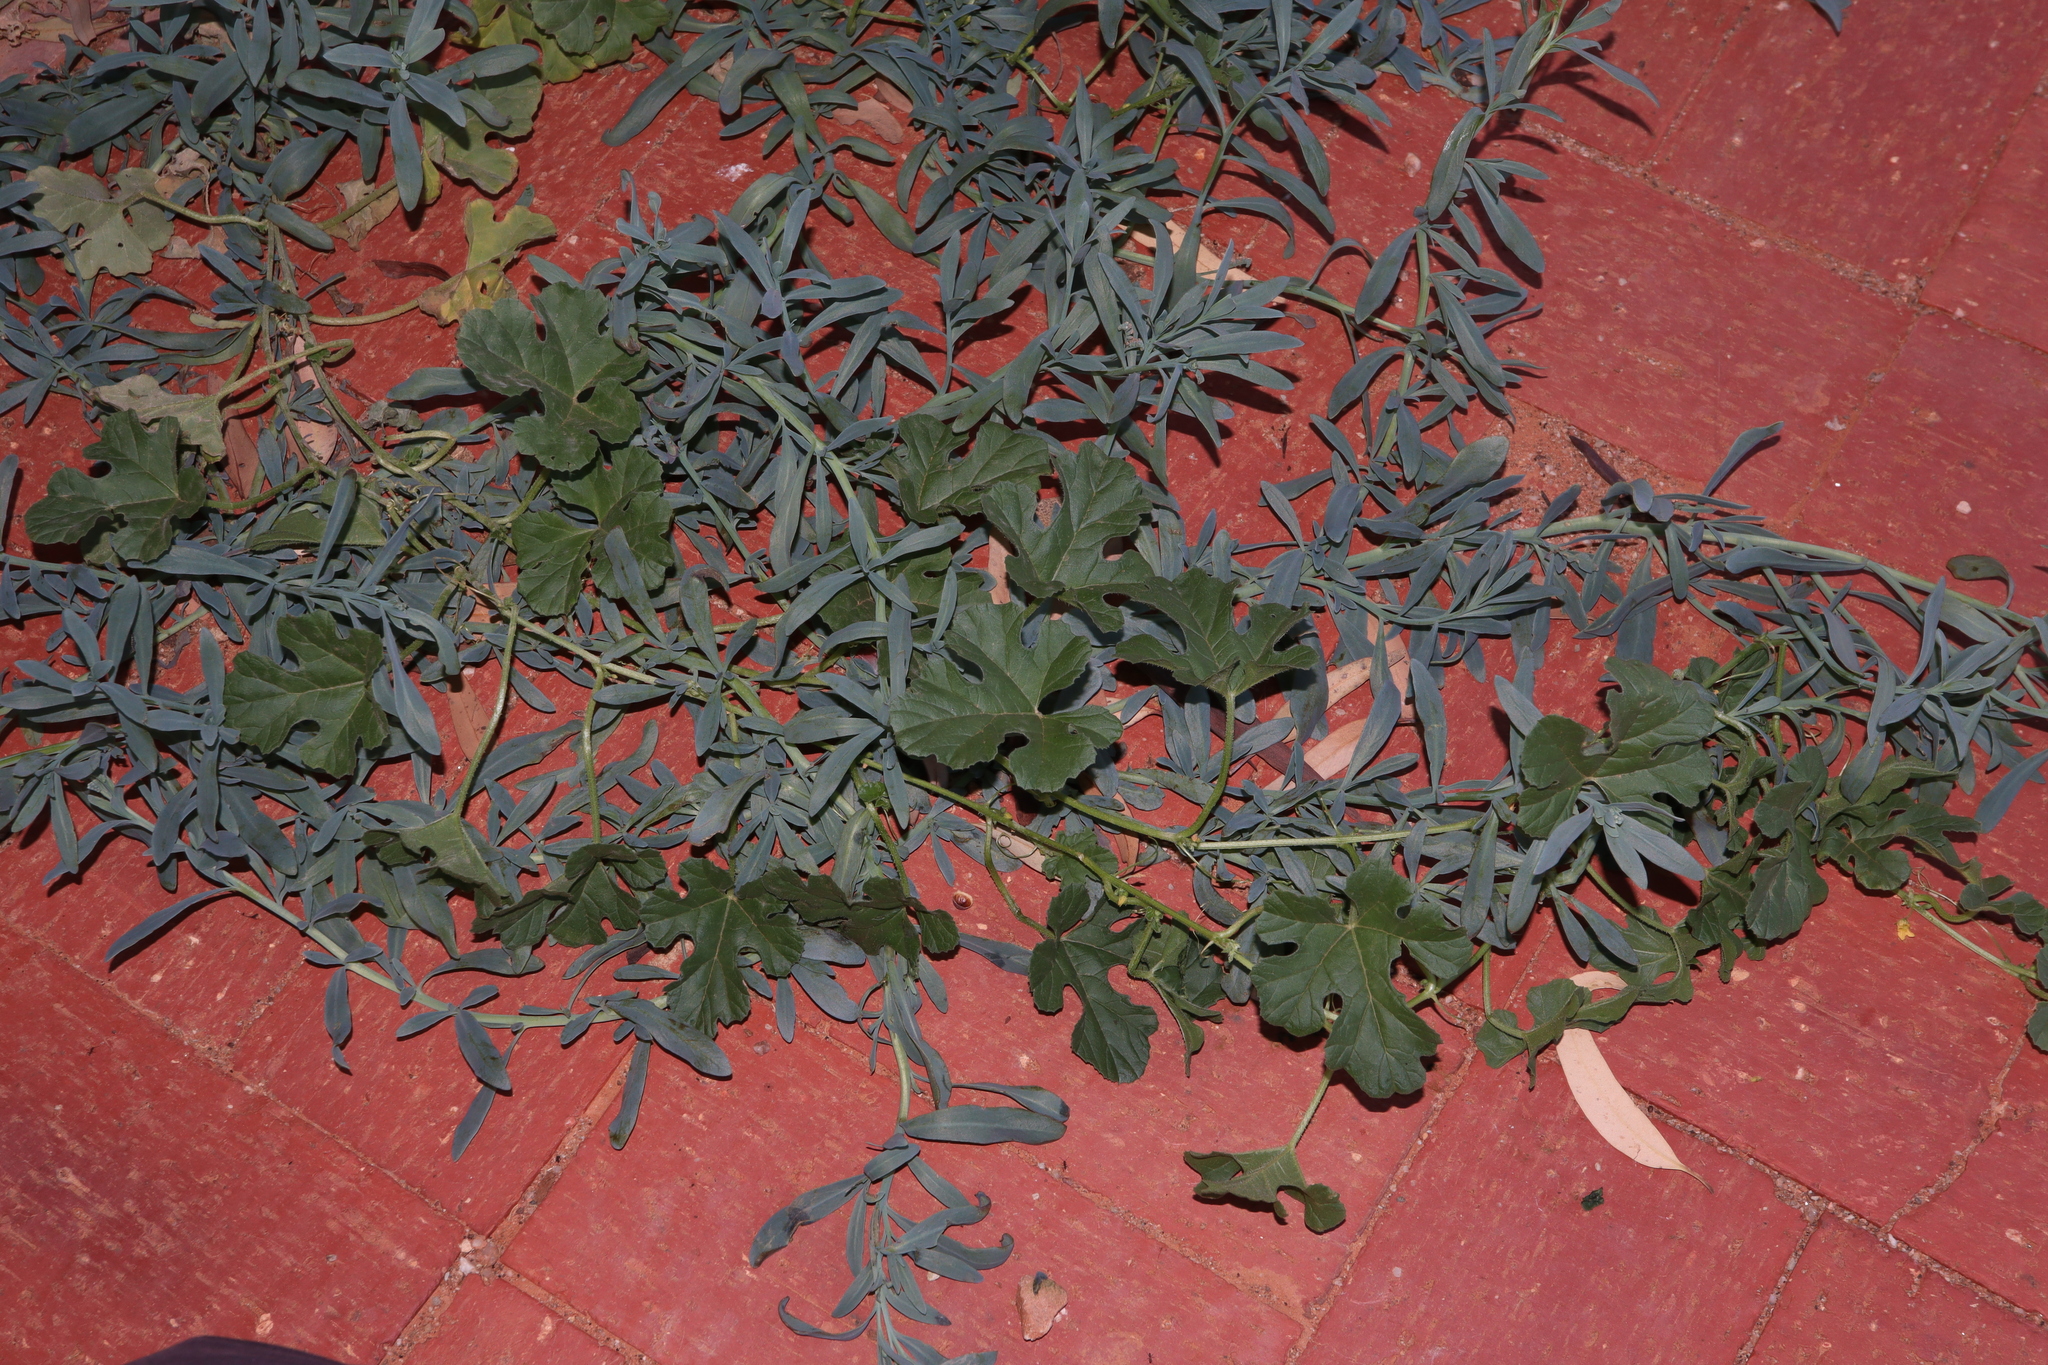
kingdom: Plantae
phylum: Tracheophyta
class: Magnoliopsida
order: Cucurbitales
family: Cucurbitaceae
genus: Cucumis
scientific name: Cucumis myriocarpus
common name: Gooseberry cucumber
